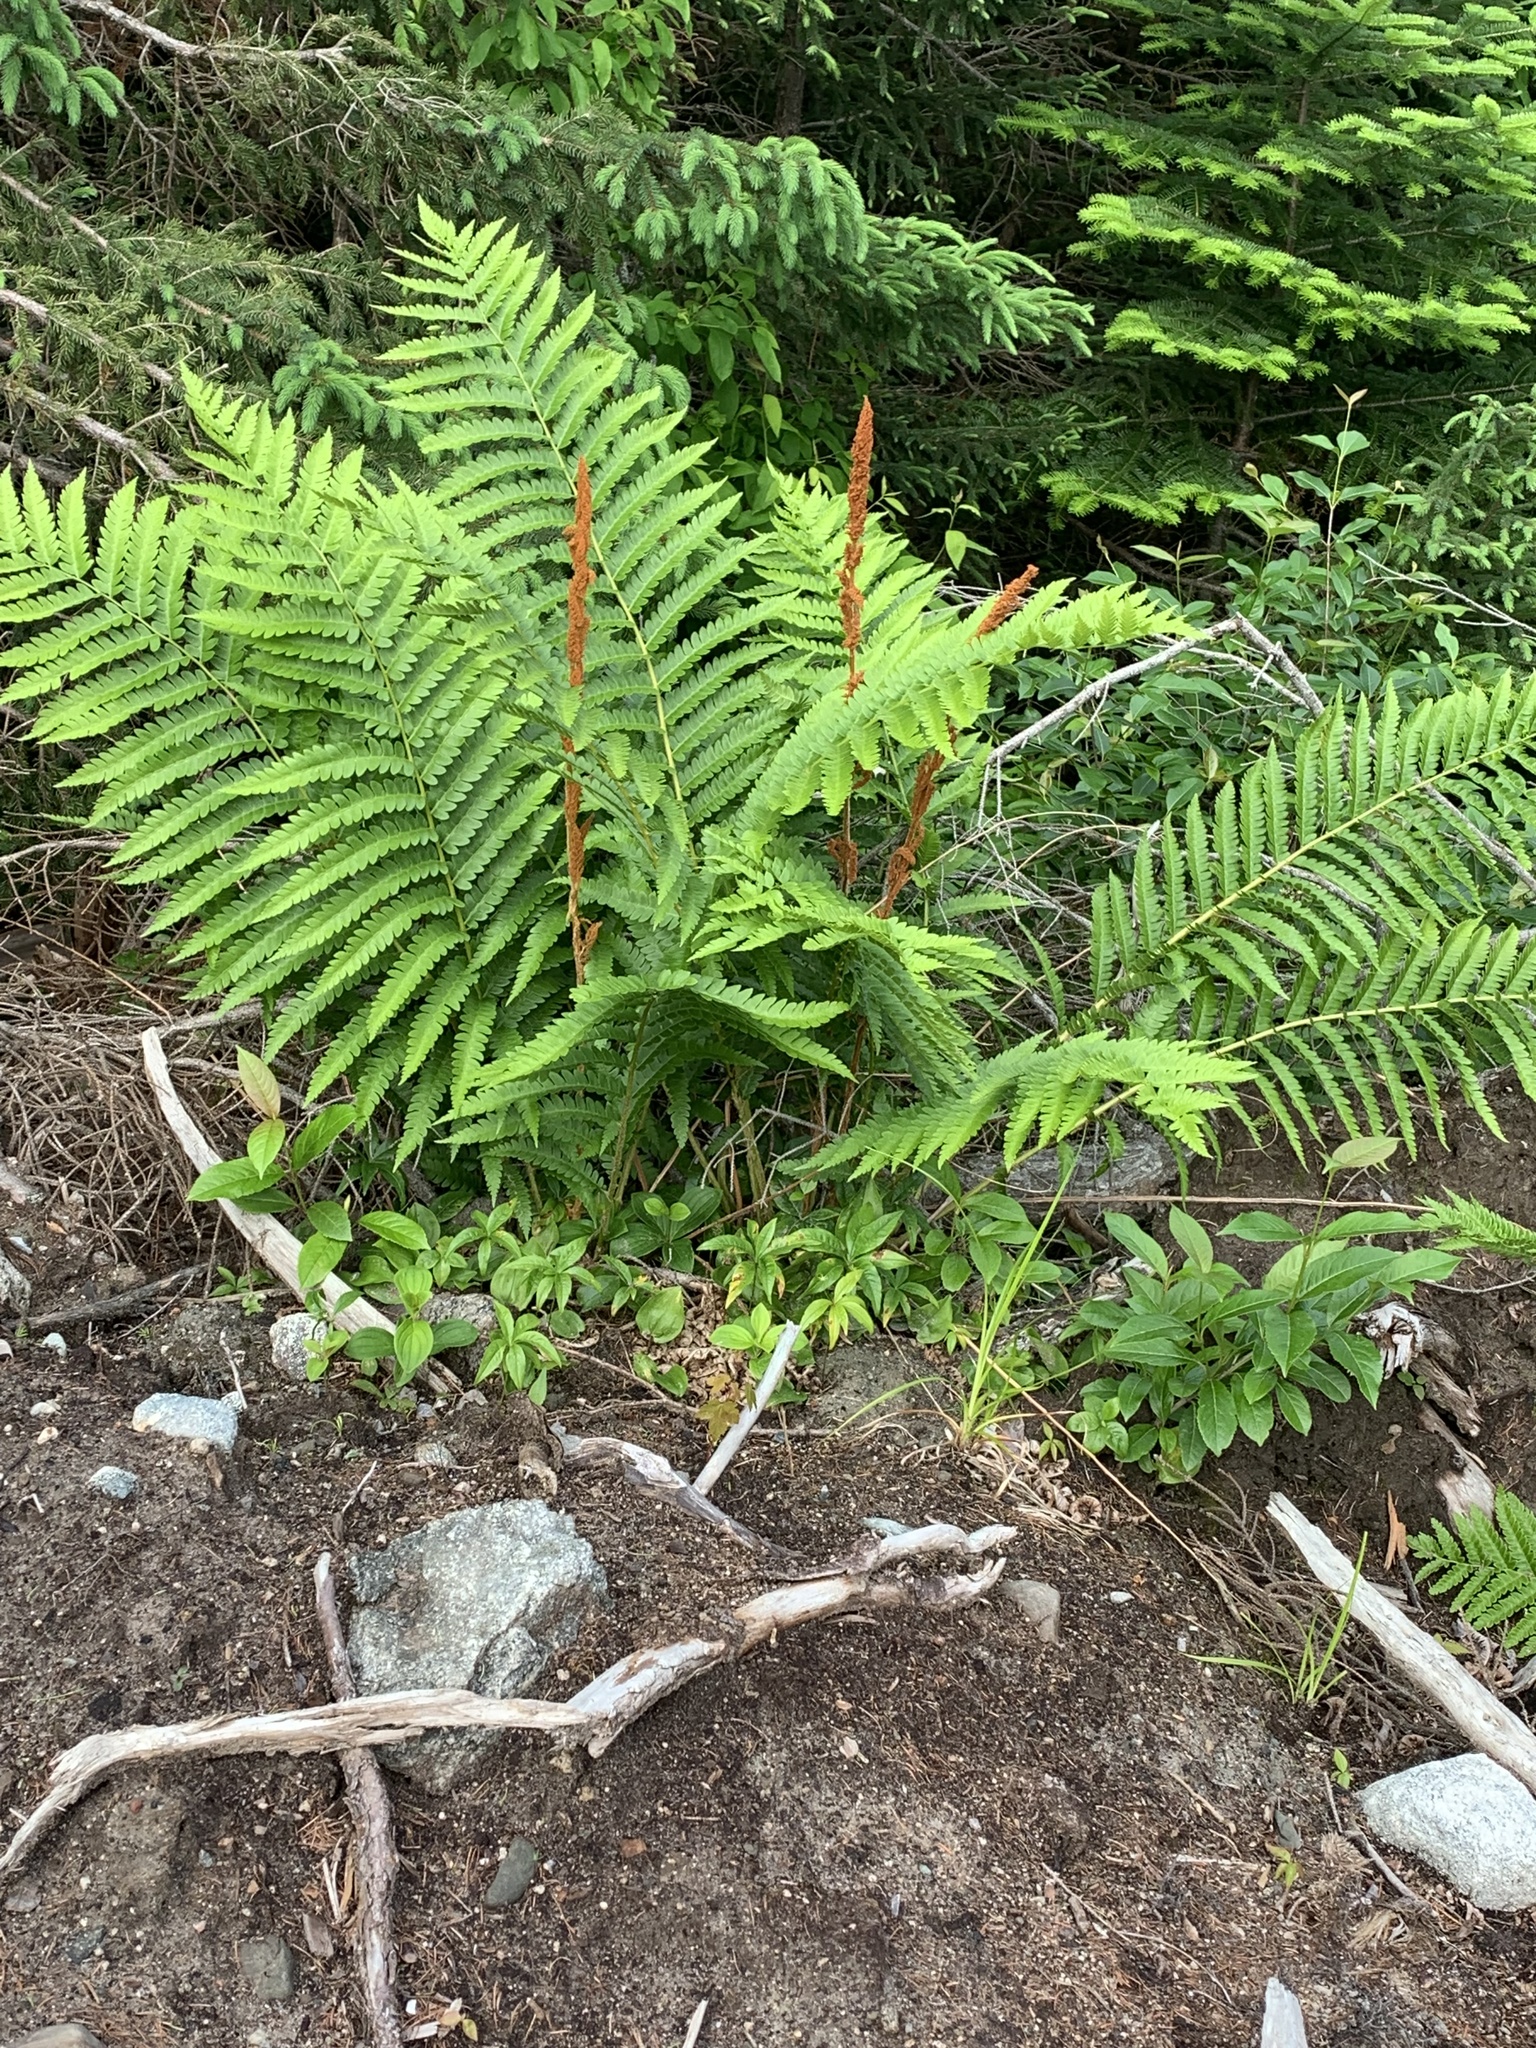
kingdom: Plantae
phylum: Tracheophyta
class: Polypodiopsida
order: Osmundales
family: Osmundaceae
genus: Osmundastrum
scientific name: Osmundastrum cinnamomeum
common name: Cinnamon fern
